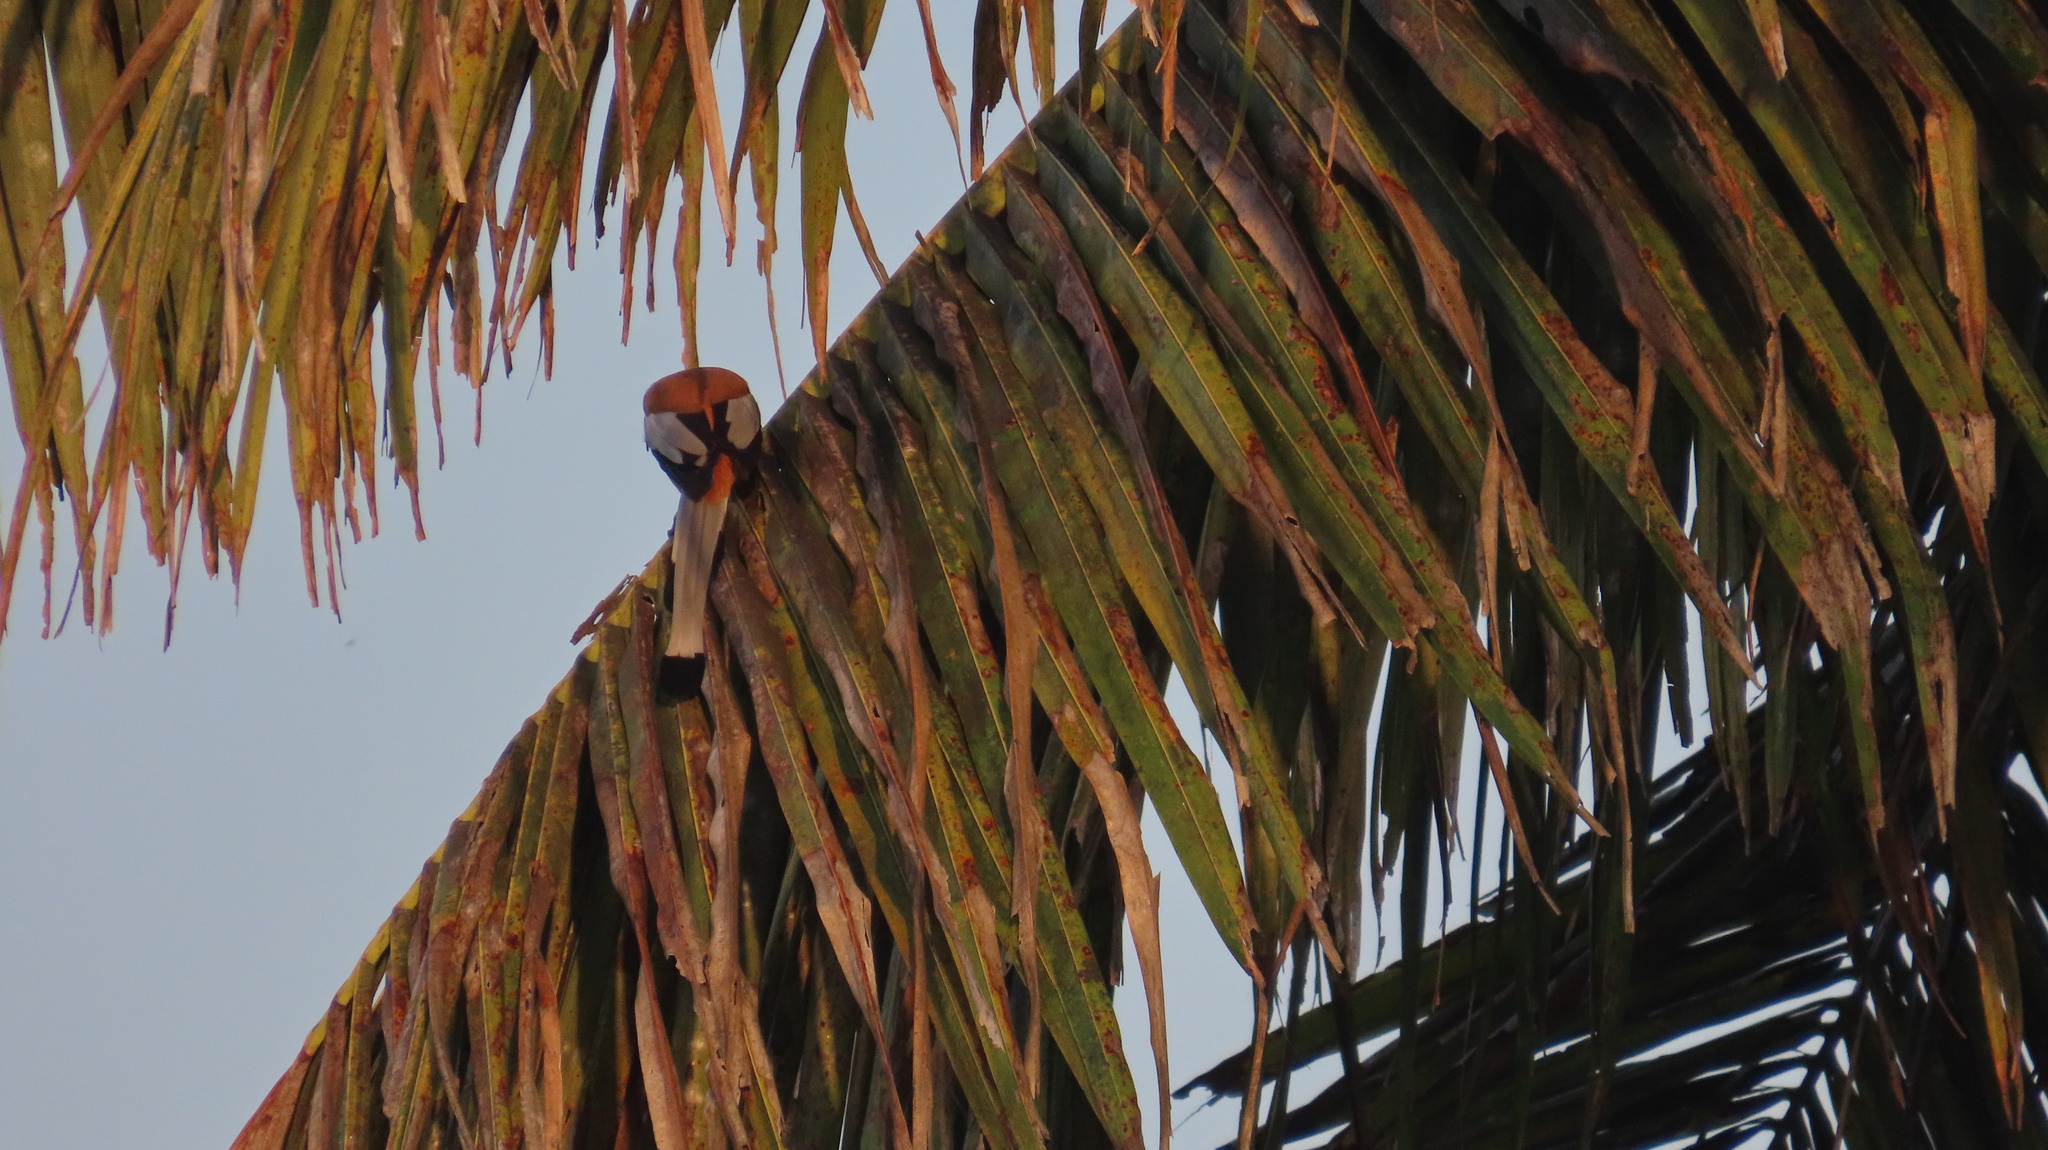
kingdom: Animalia
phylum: Chordata
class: Aves
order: Passeriformes
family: Corvidae
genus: Dendrocitta
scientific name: Dendrocitta vagabunda
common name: Rufous treepie
